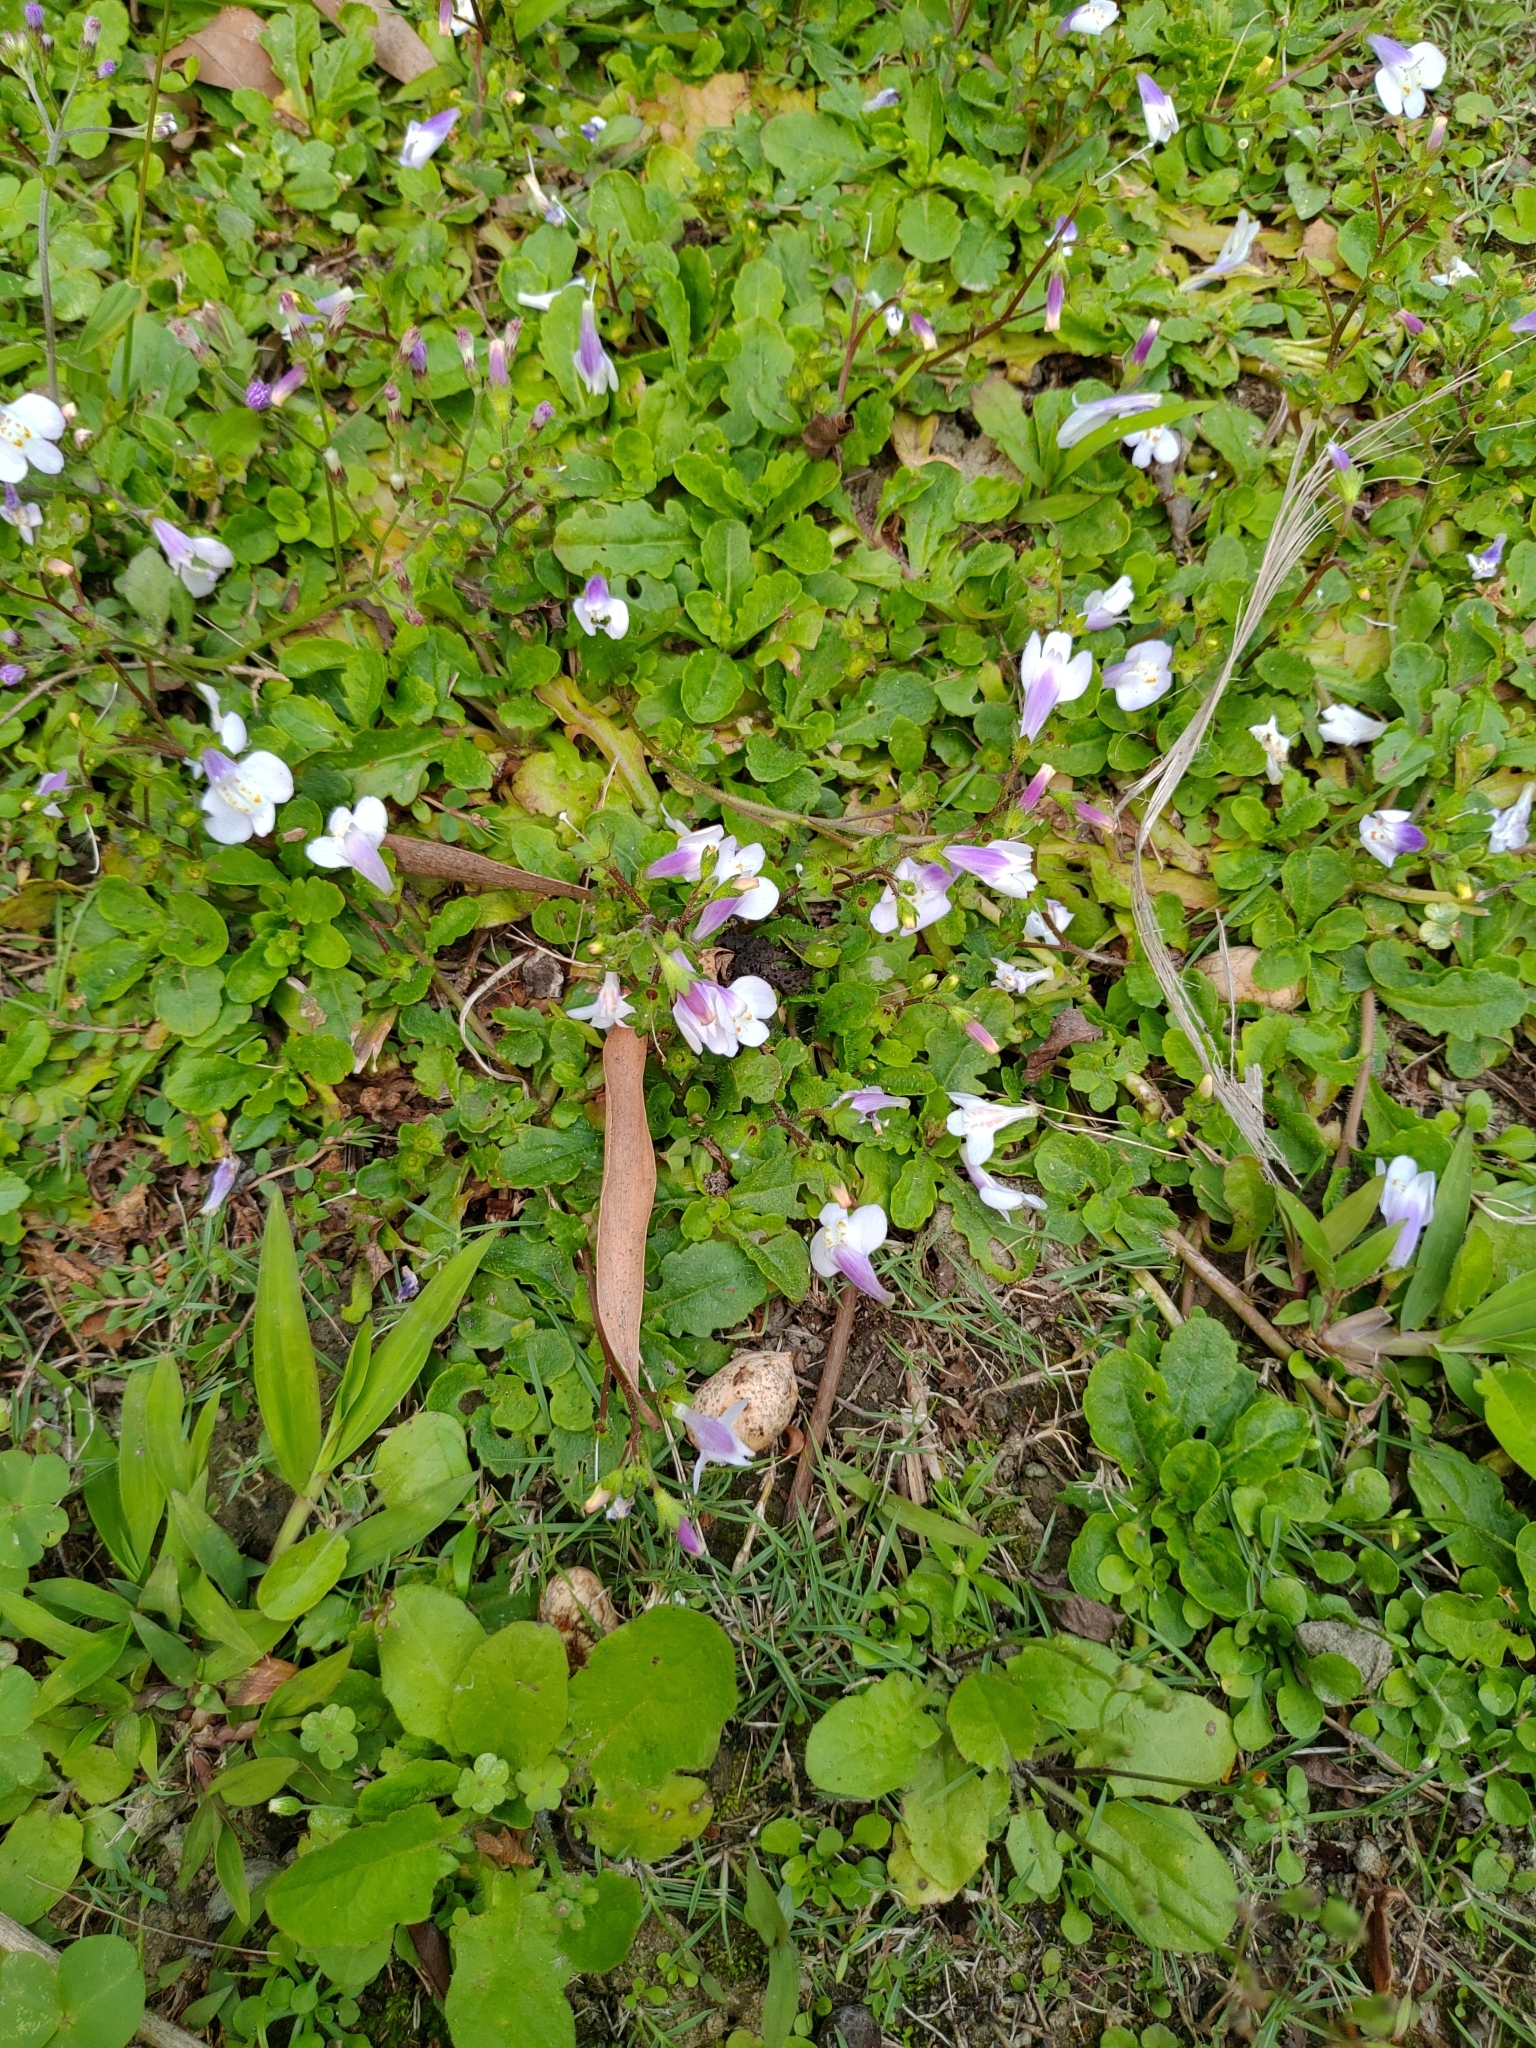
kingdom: Plantae
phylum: Tracheophyta
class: Magnoliopsida
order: Lamiales
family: Mazaceae
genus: Mazus
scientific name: Mazus fauriei
